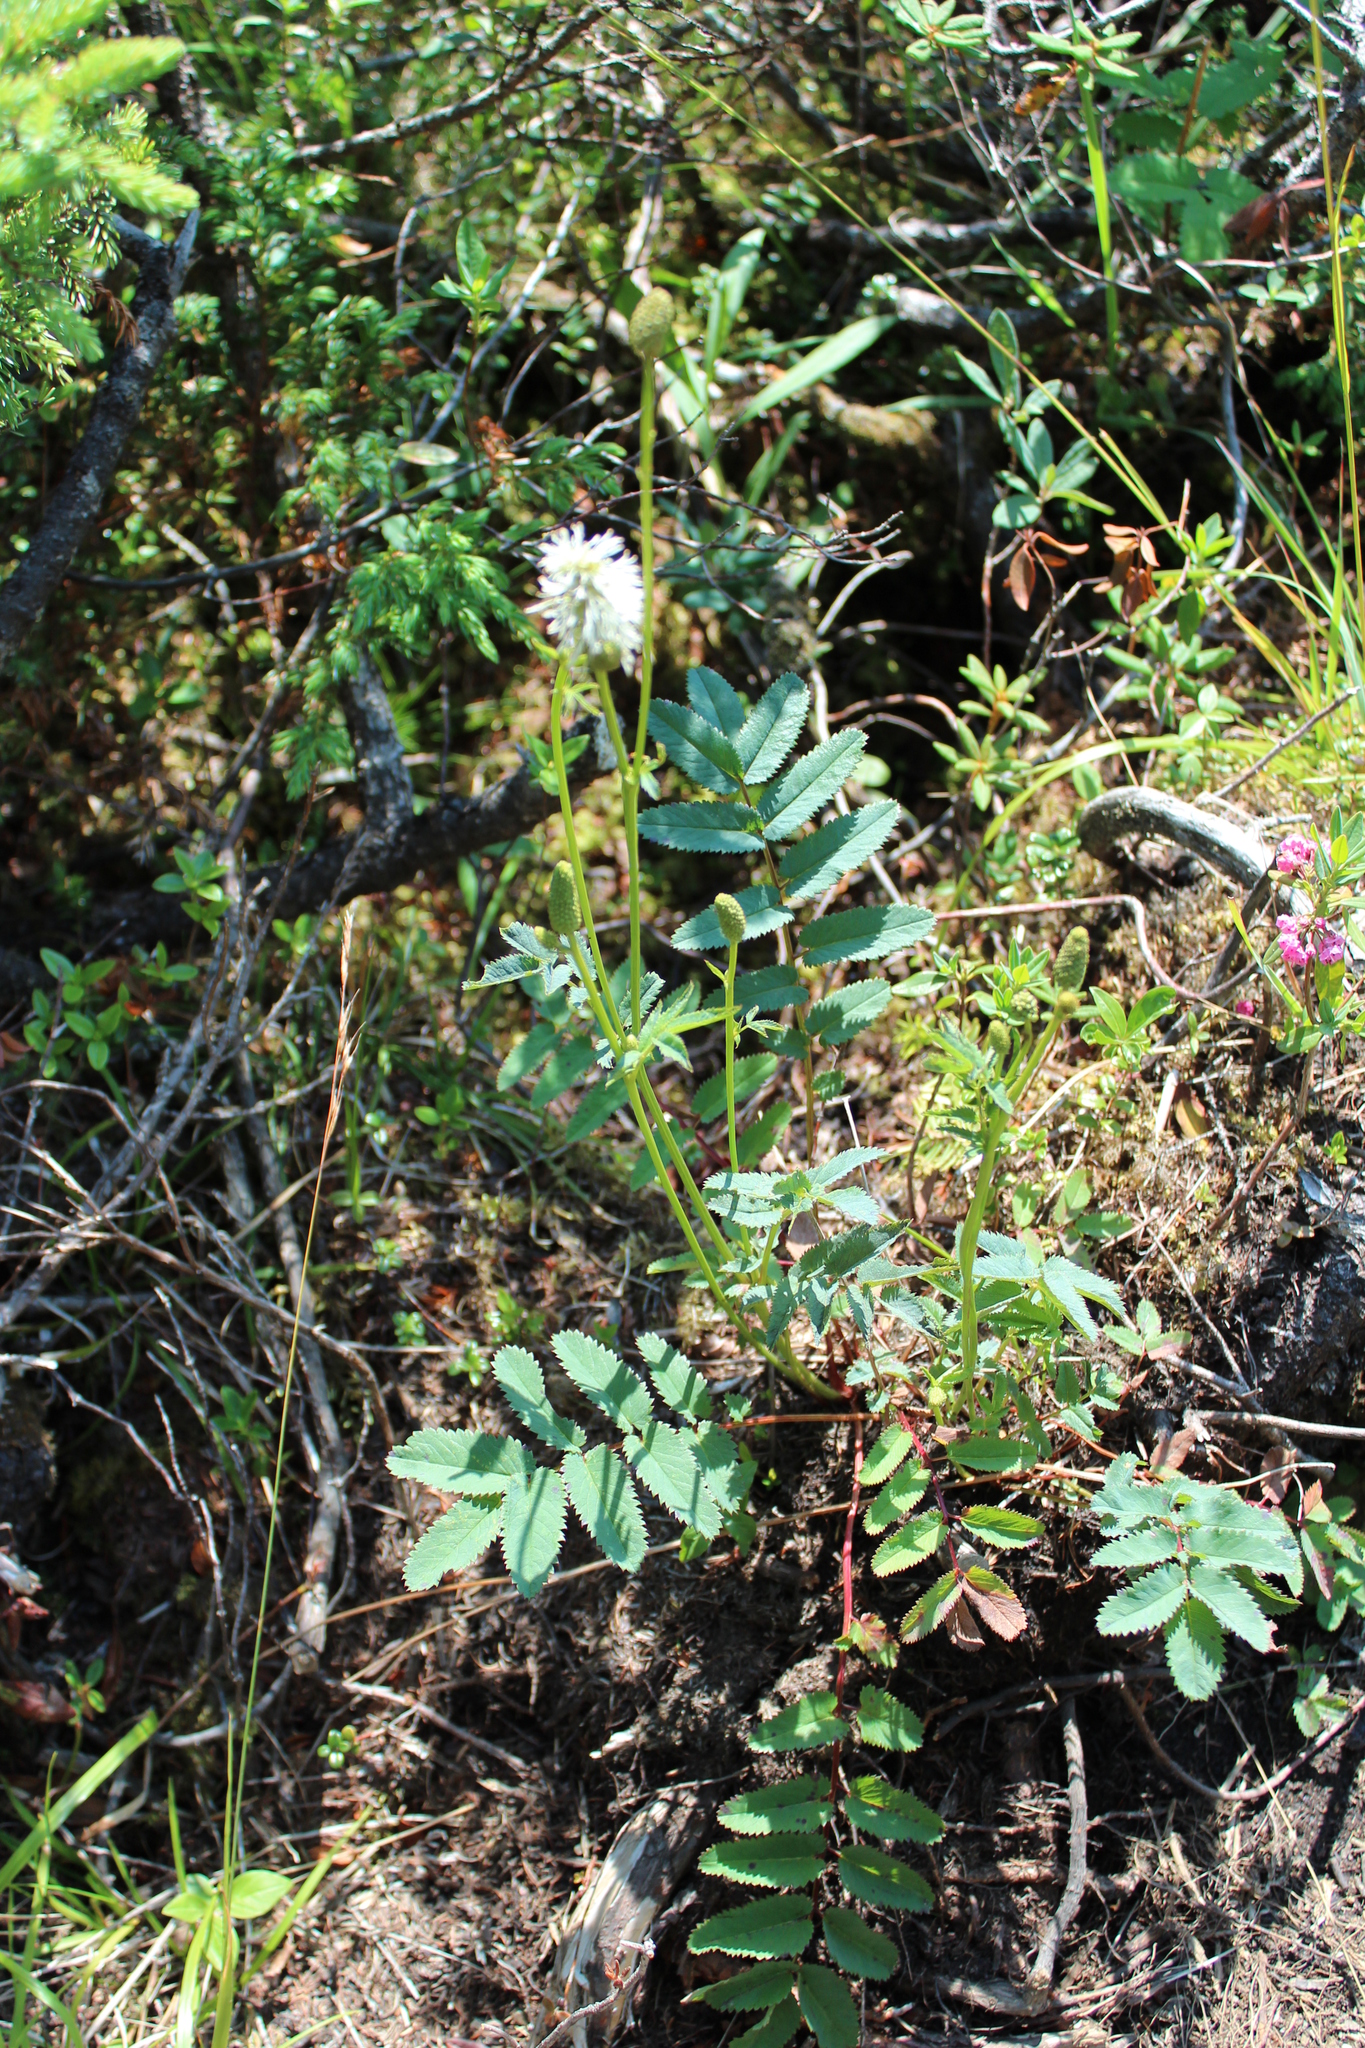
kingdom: Plantae
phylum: Tracheophyta
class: Magnoliopsida
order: Rosales
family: Rosaceae
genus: Sanguisorba
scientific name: Sanguisorba canadensis
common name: White burnet
